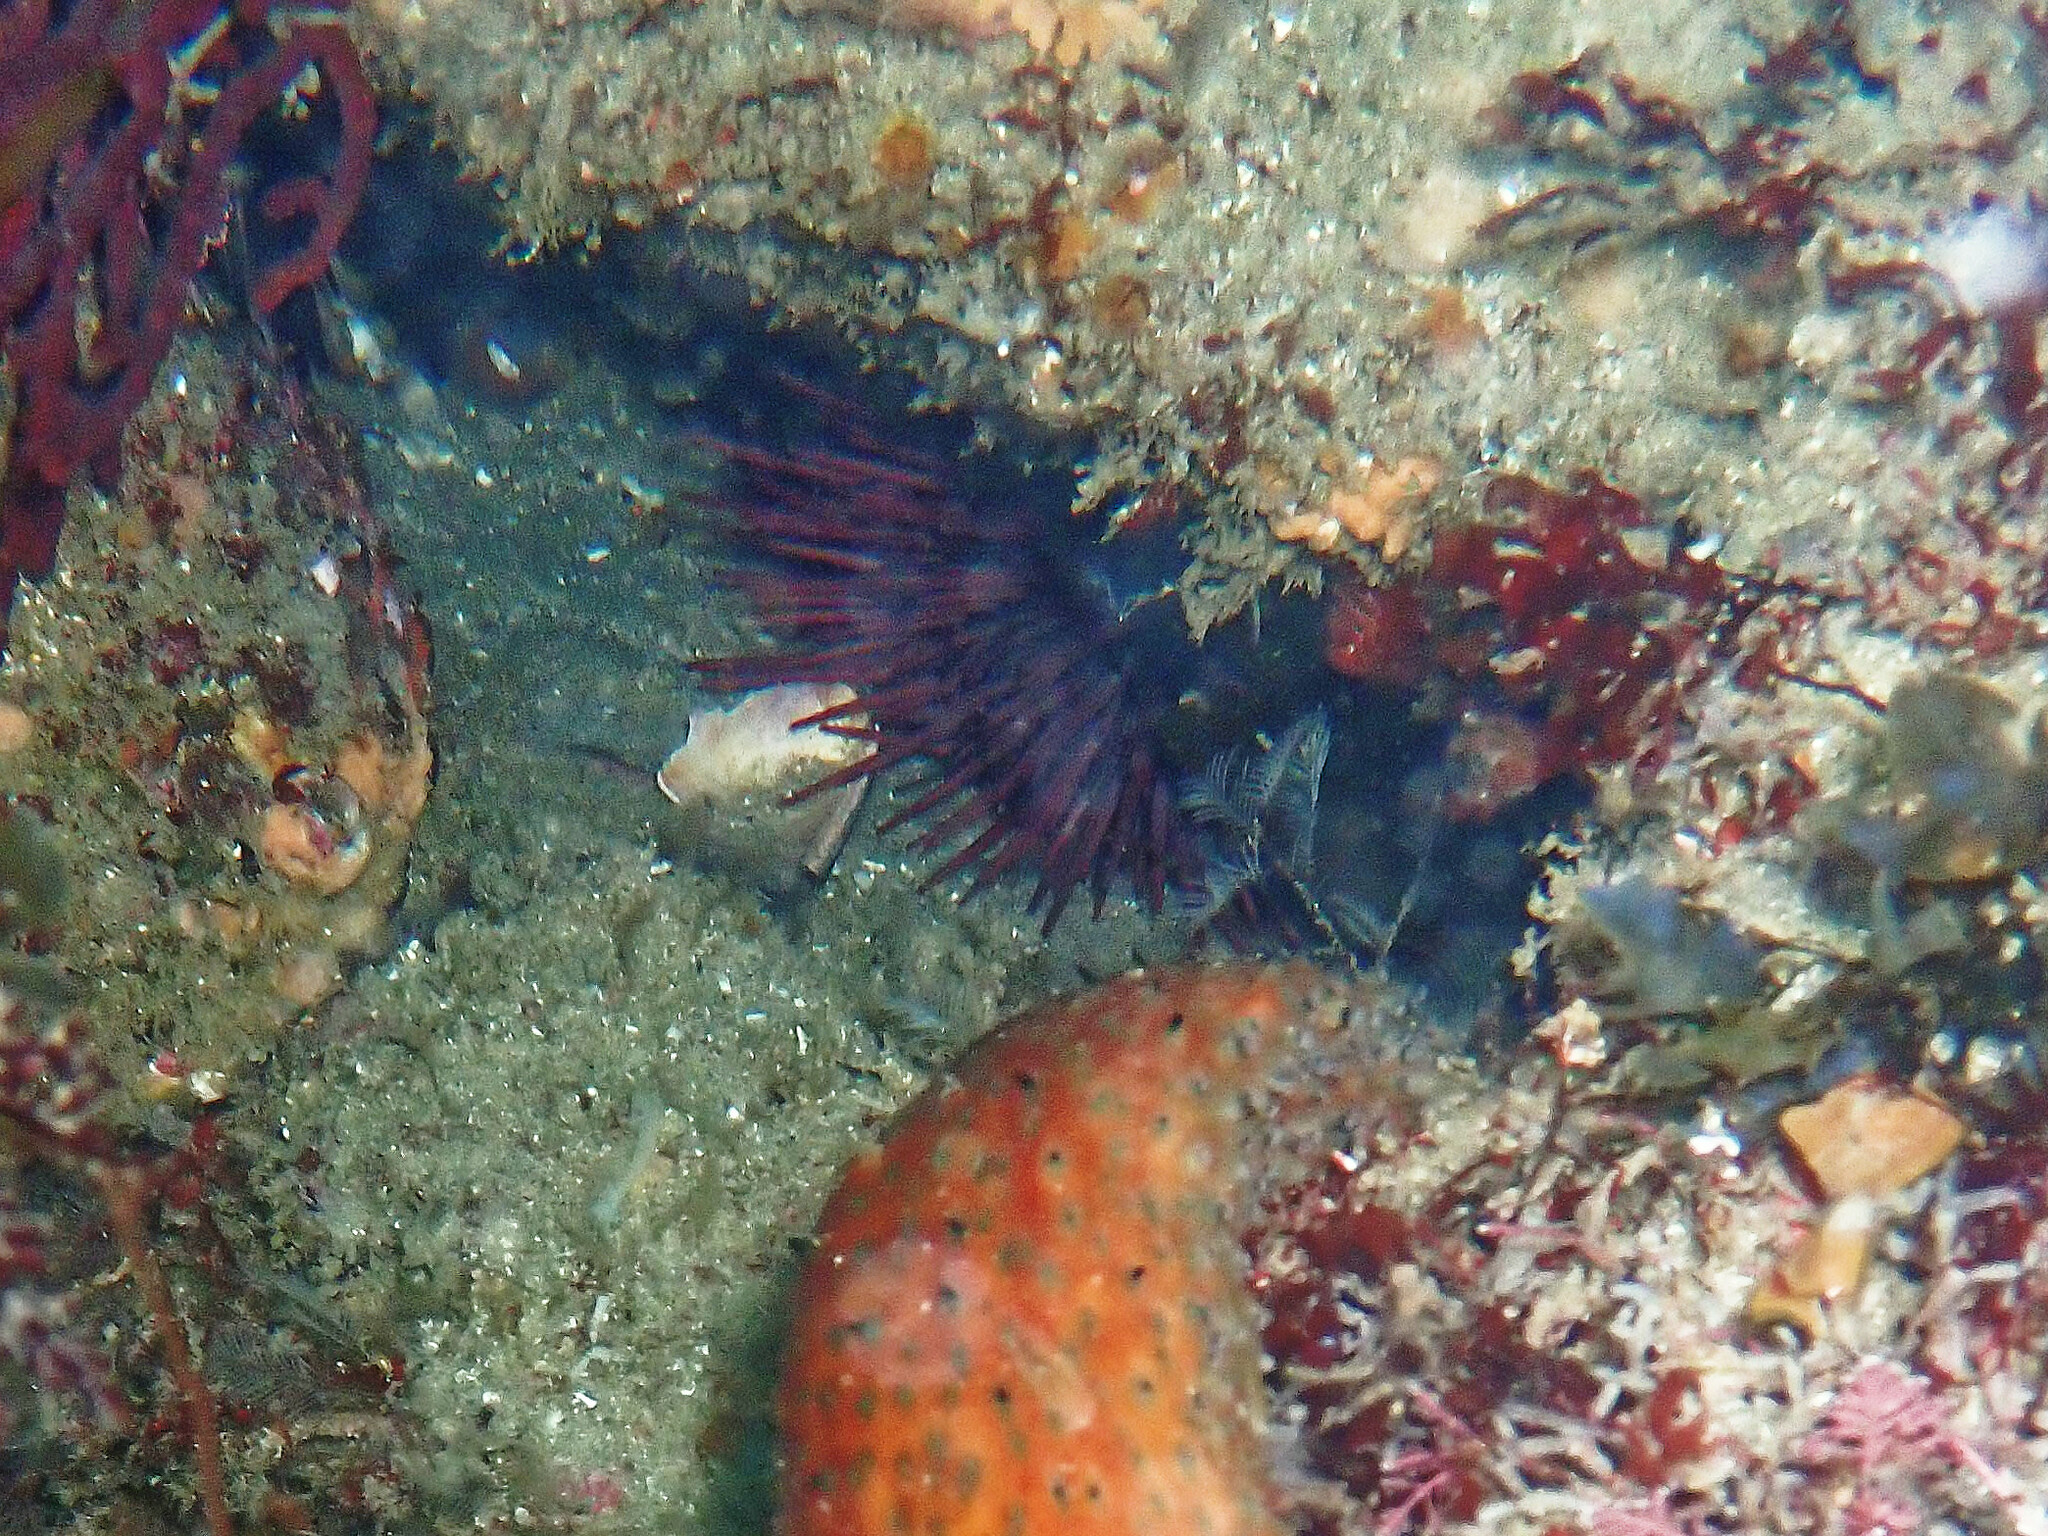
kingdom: Animalia
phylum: Echinodermata
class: Echinoidea
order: Camarodonta
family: Strongylocentrotidae
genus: Mesocentrotus
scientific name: Mesocentrotus franciscanus
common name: Red sea urchin
